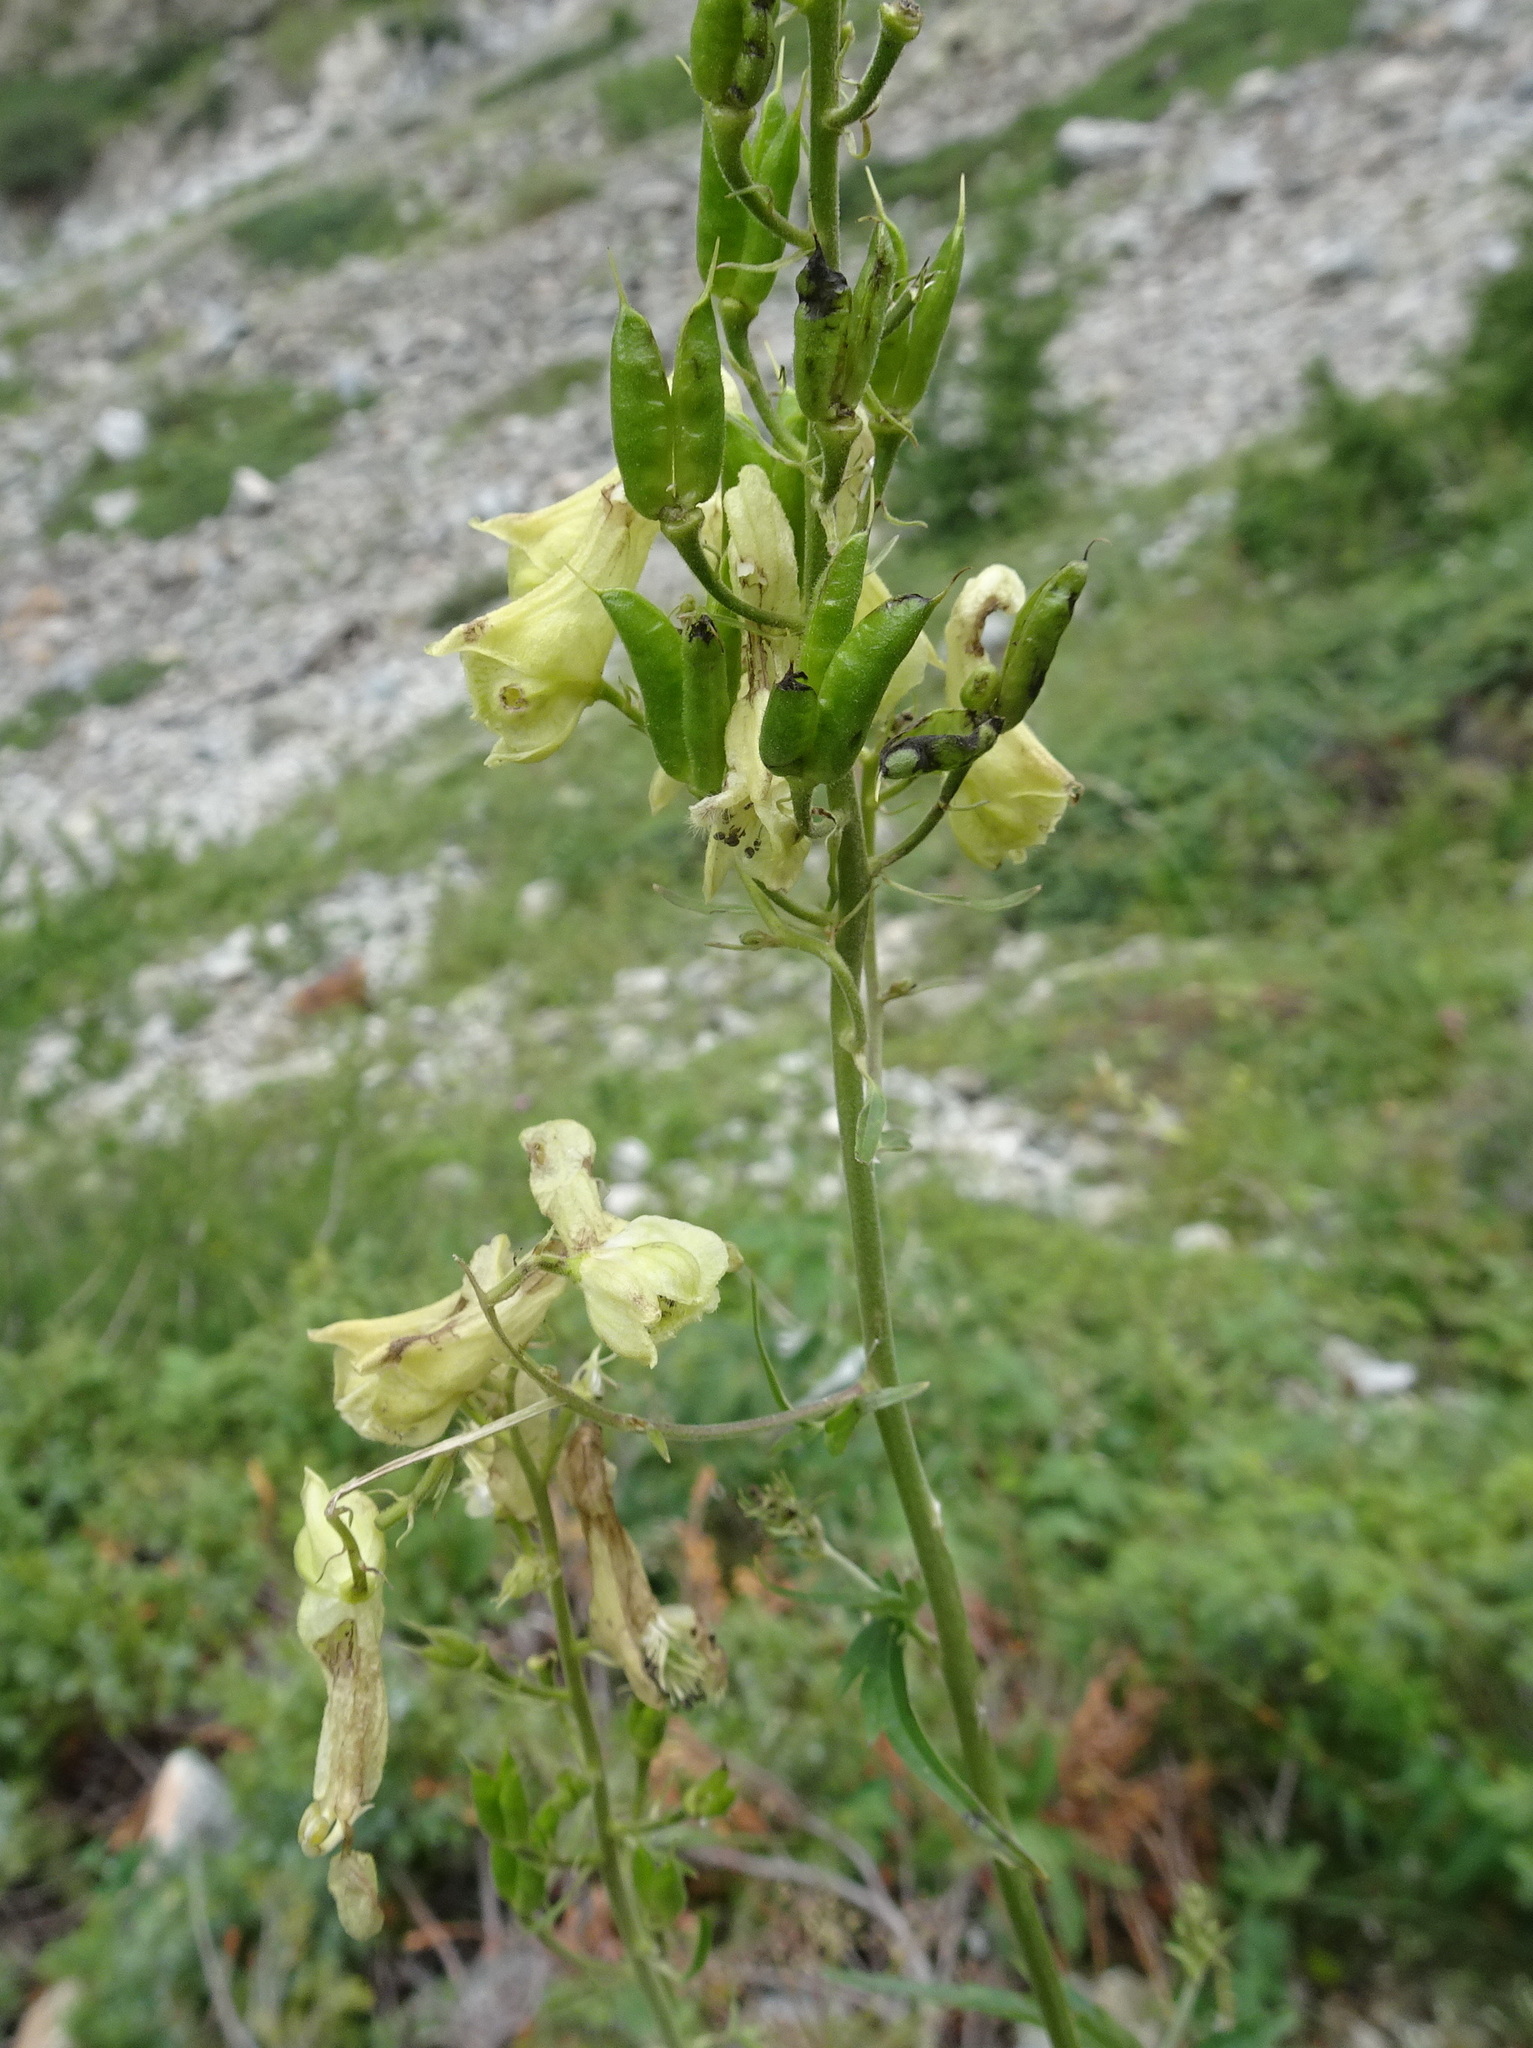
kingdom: Plantae
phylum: Tracheophyta
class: Magnoliopsida
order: Ranunculales
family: Ranunculaceae
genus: Aconitum
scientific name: Aconitum lycoctonum
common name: Wolf's-bane
